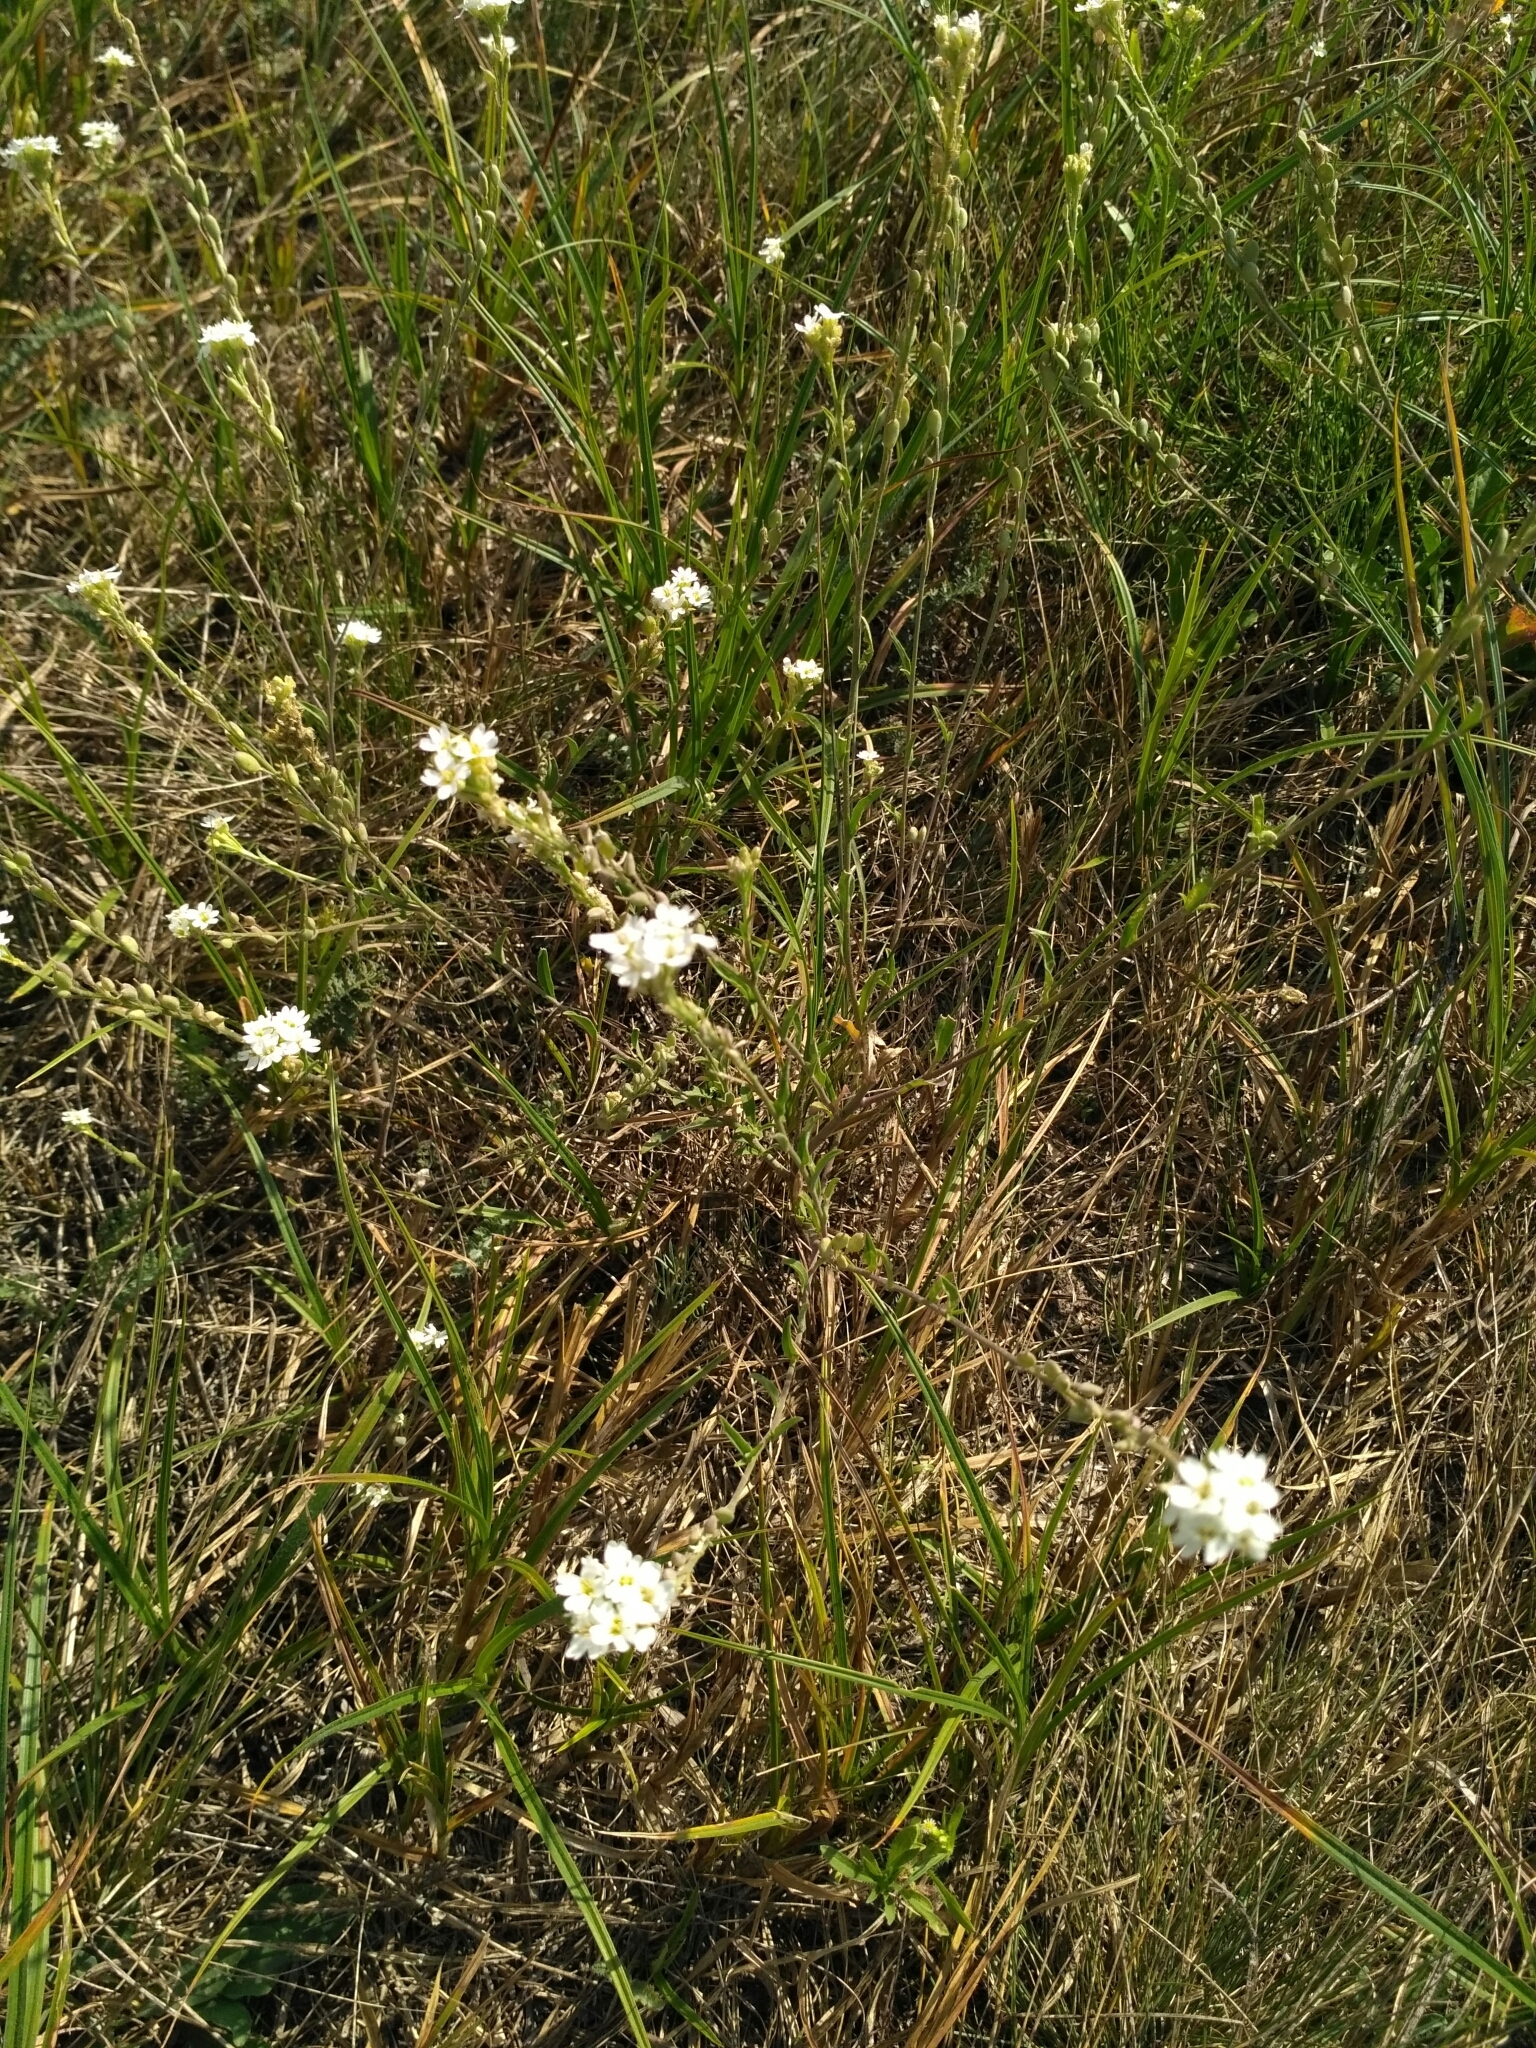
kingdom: Plantae
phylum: Tracheophyta
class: Magnoliopsida
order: Brassicales
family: Brassicaceae
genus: Berteroa
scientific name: Berteroa incana
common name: Hoary alison
